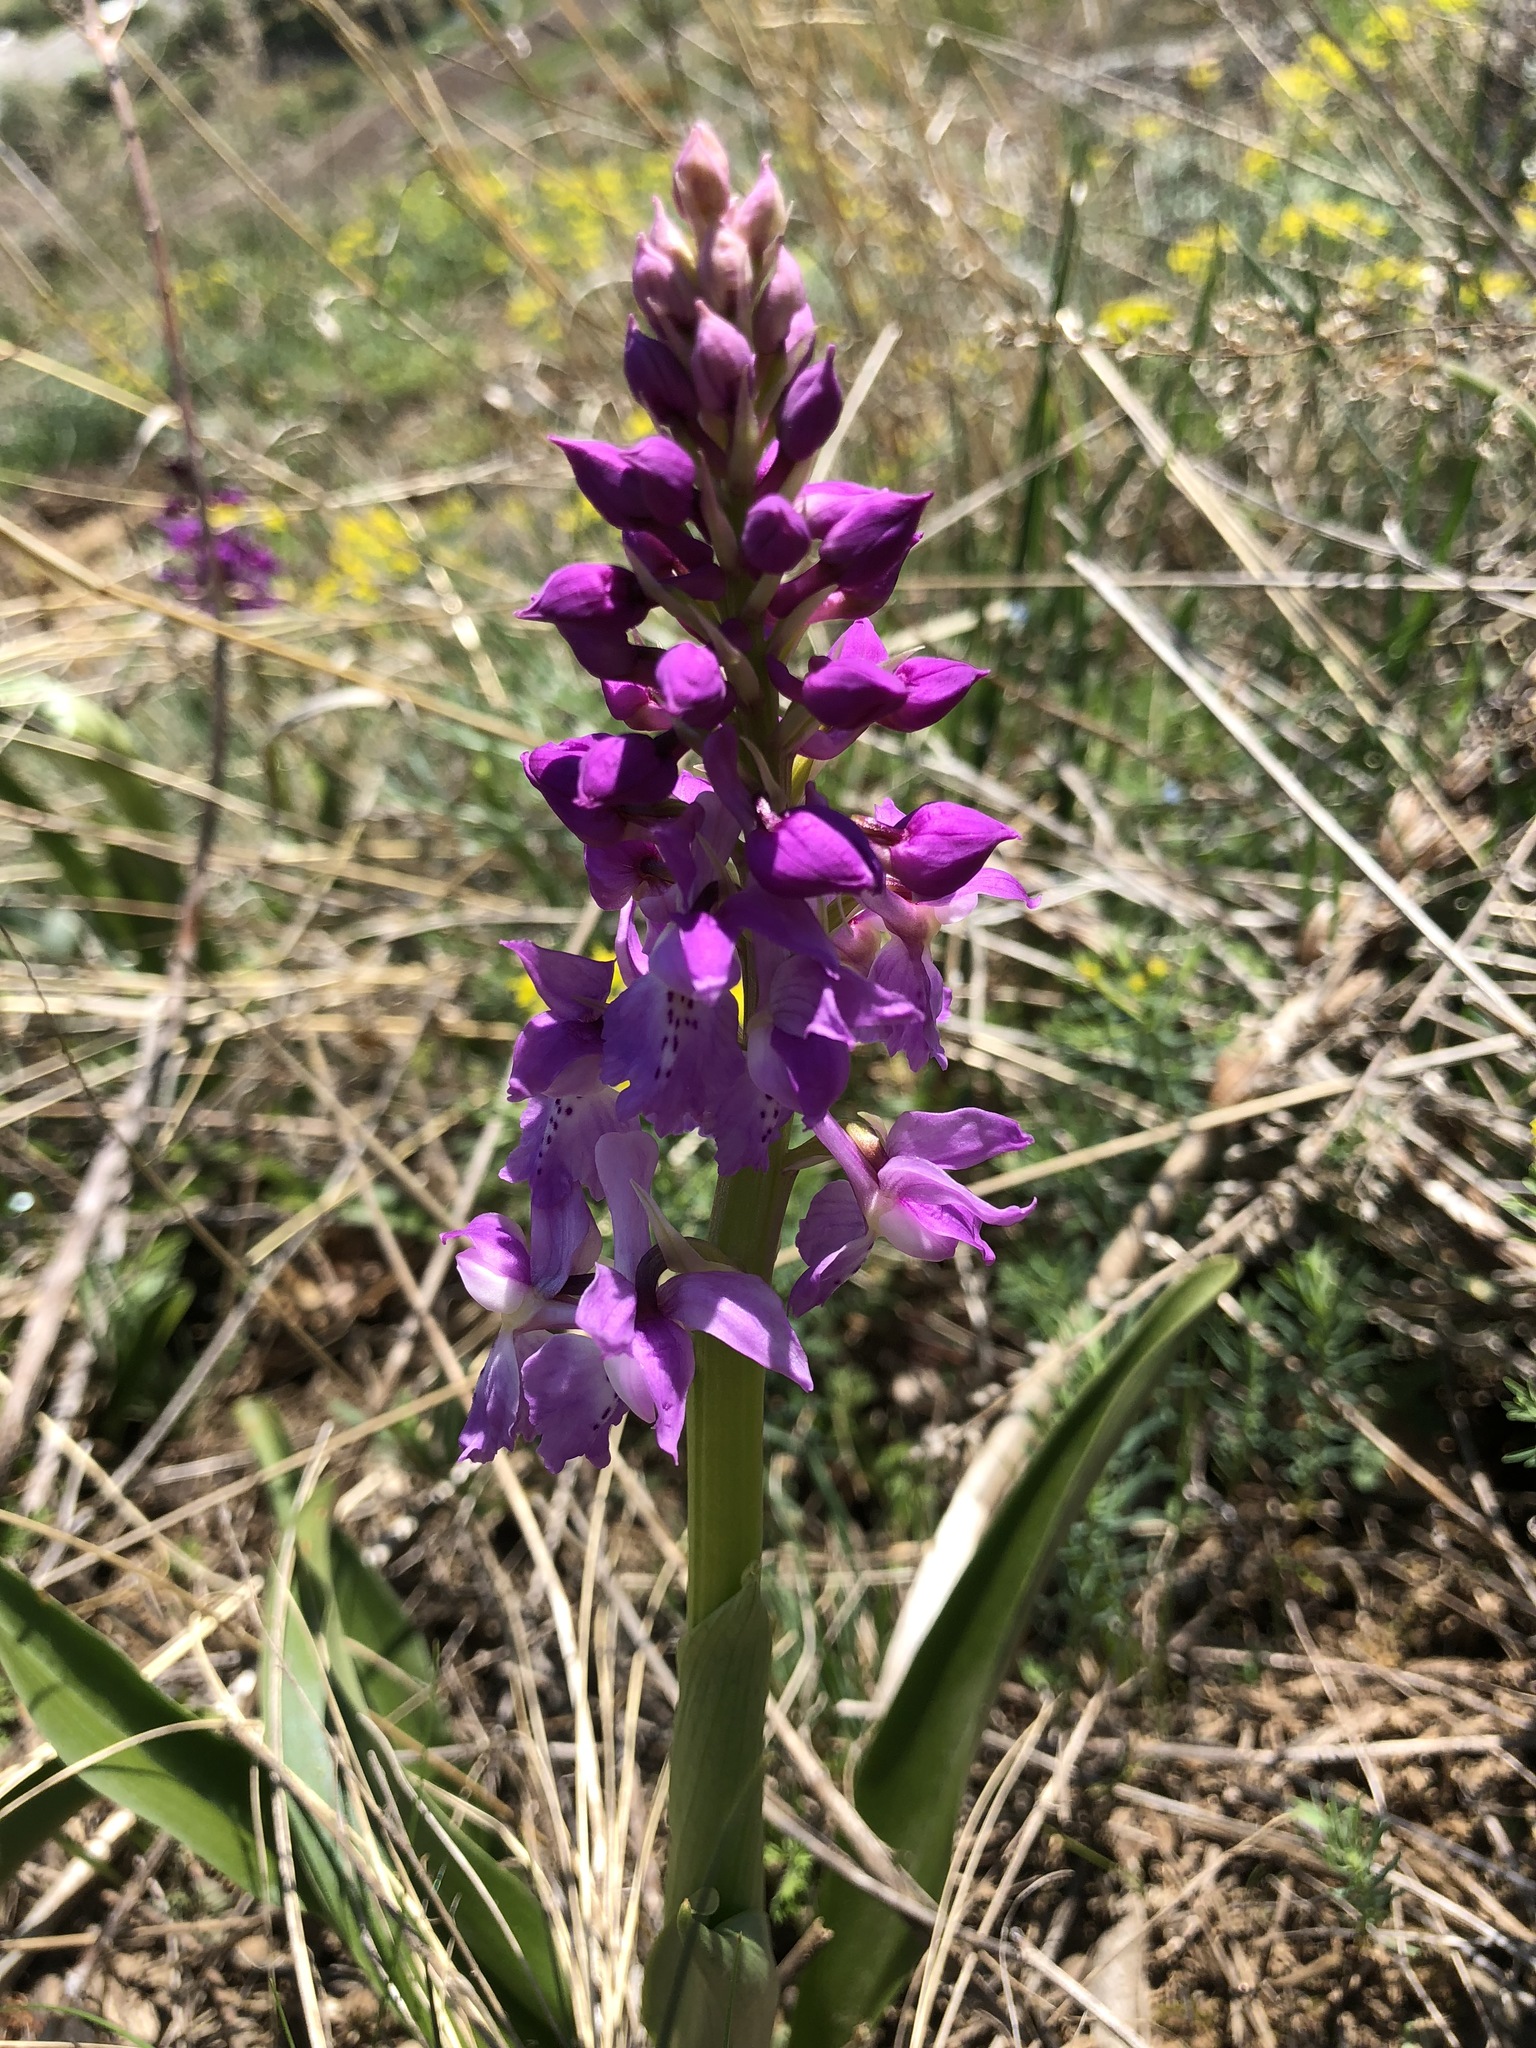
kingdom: Plantae
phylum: Tracheophyta
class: Liliopsida
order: Asparagales
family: Orchidaceae
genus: Orchis
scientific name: Orchis mascula
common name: Early-purple orchid
